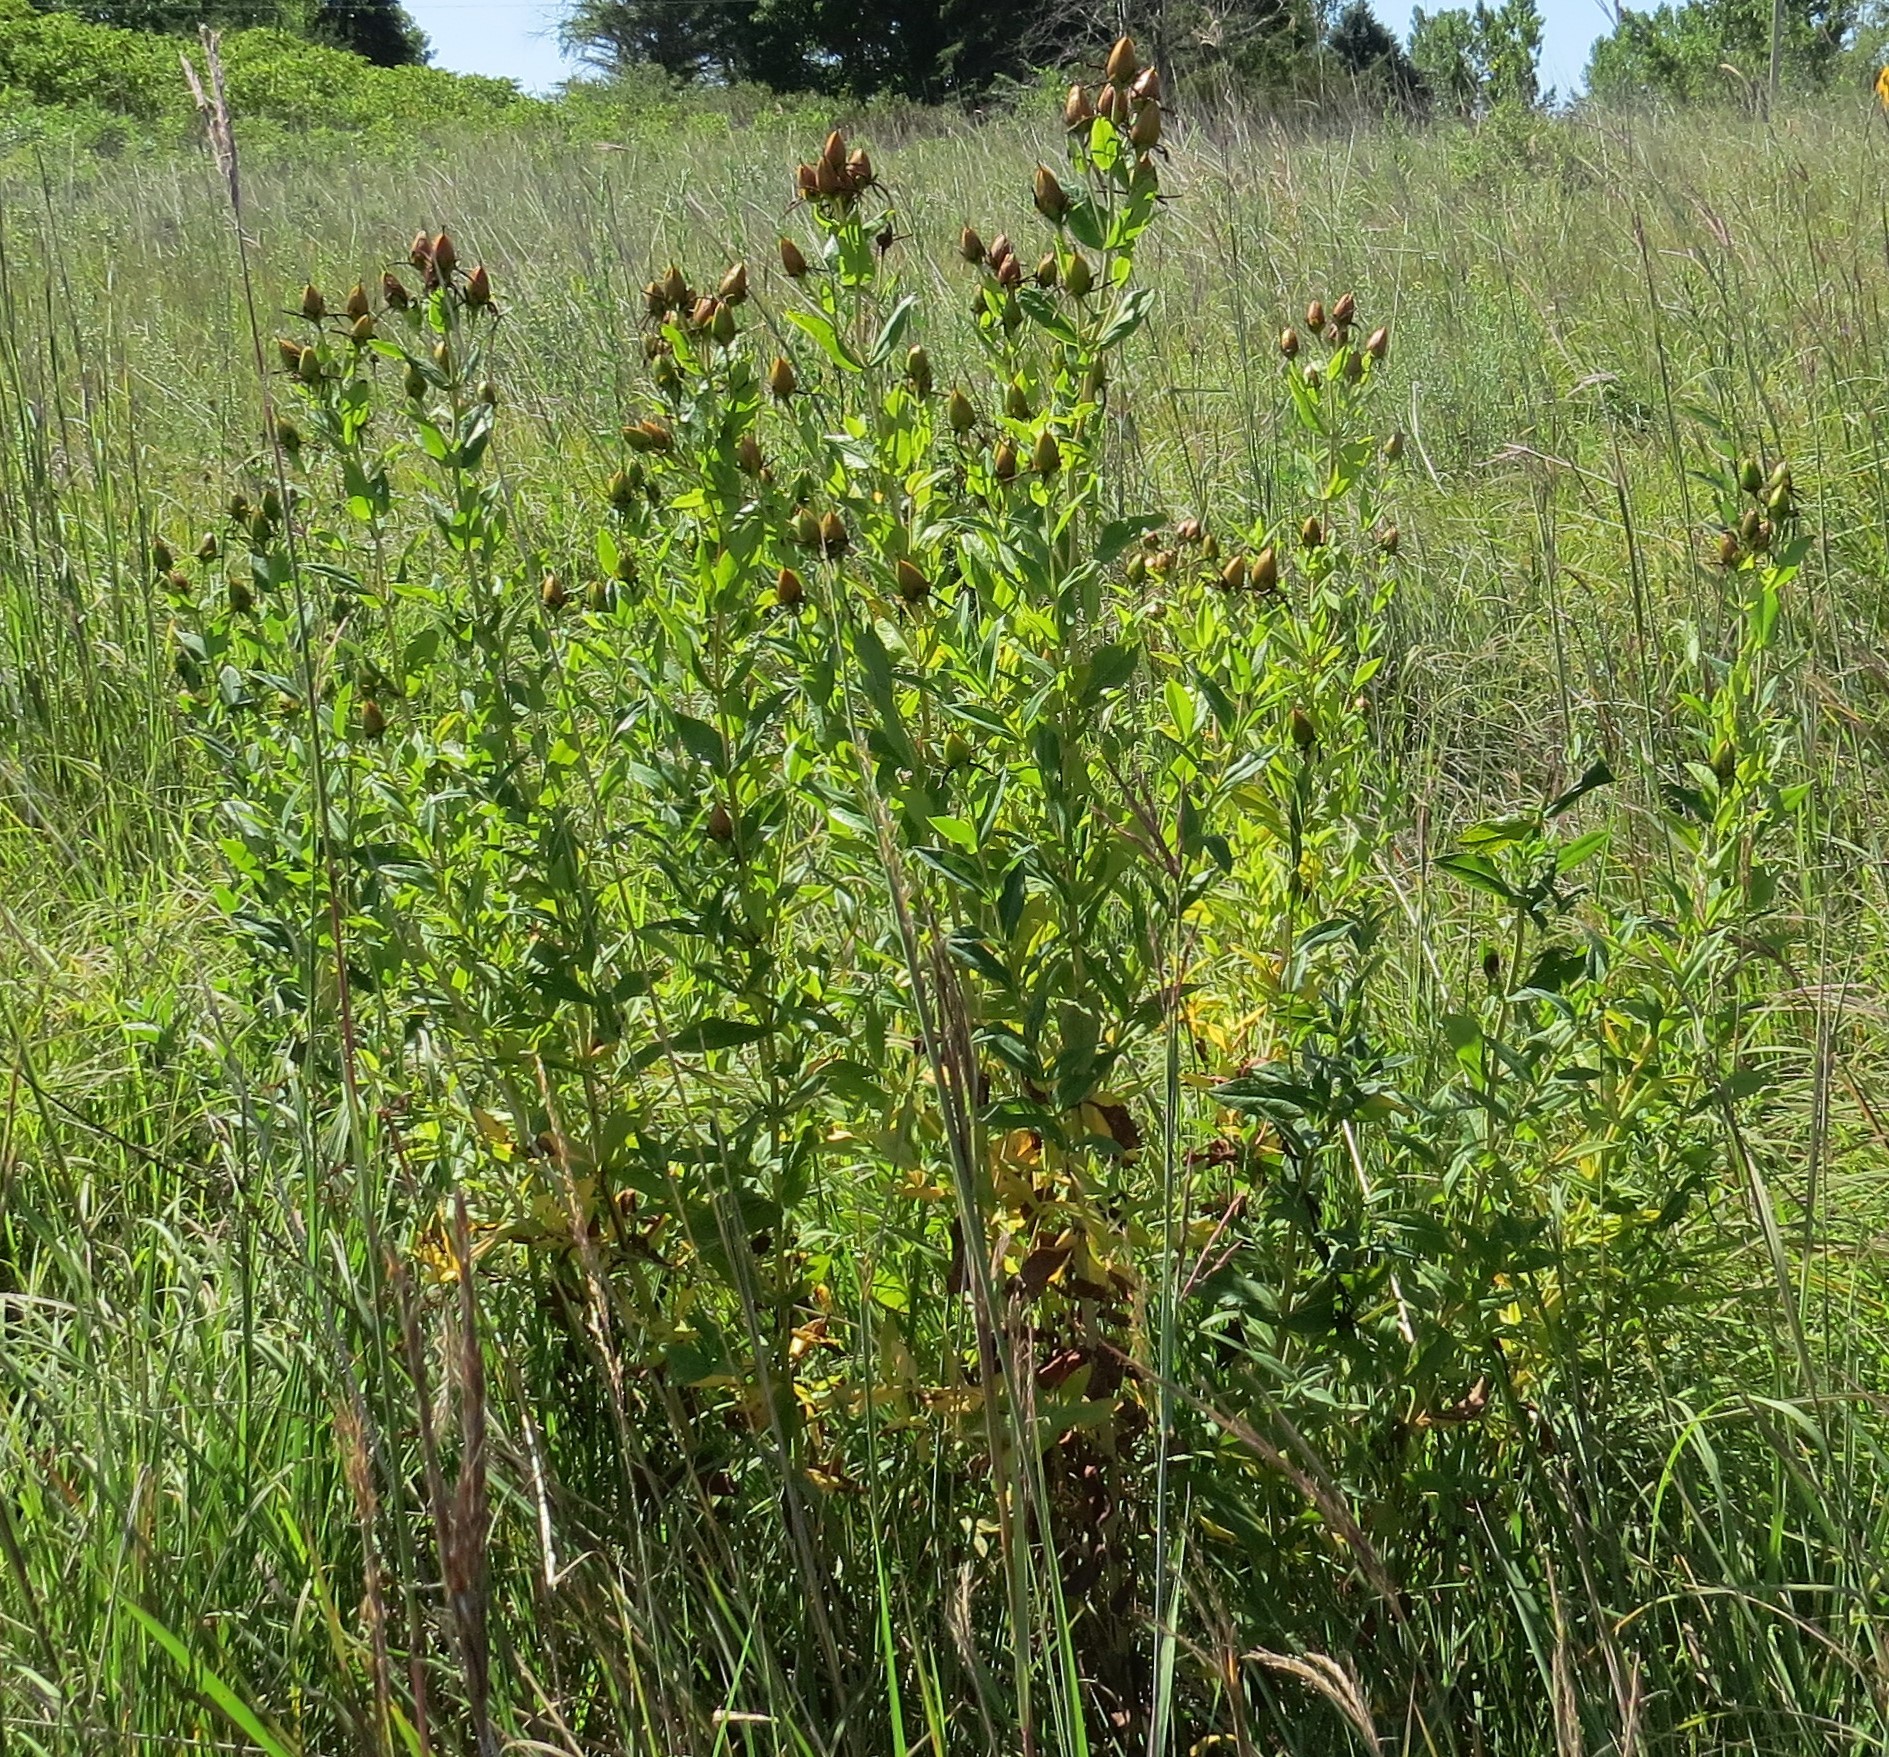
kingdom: Plantae
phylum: Tracheophyta
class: Magnoliopsida
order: Malpighiales
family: Hypericaceae
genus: Hypericum
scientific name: Hypericum ascyron
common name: Giant st. john's-wort
